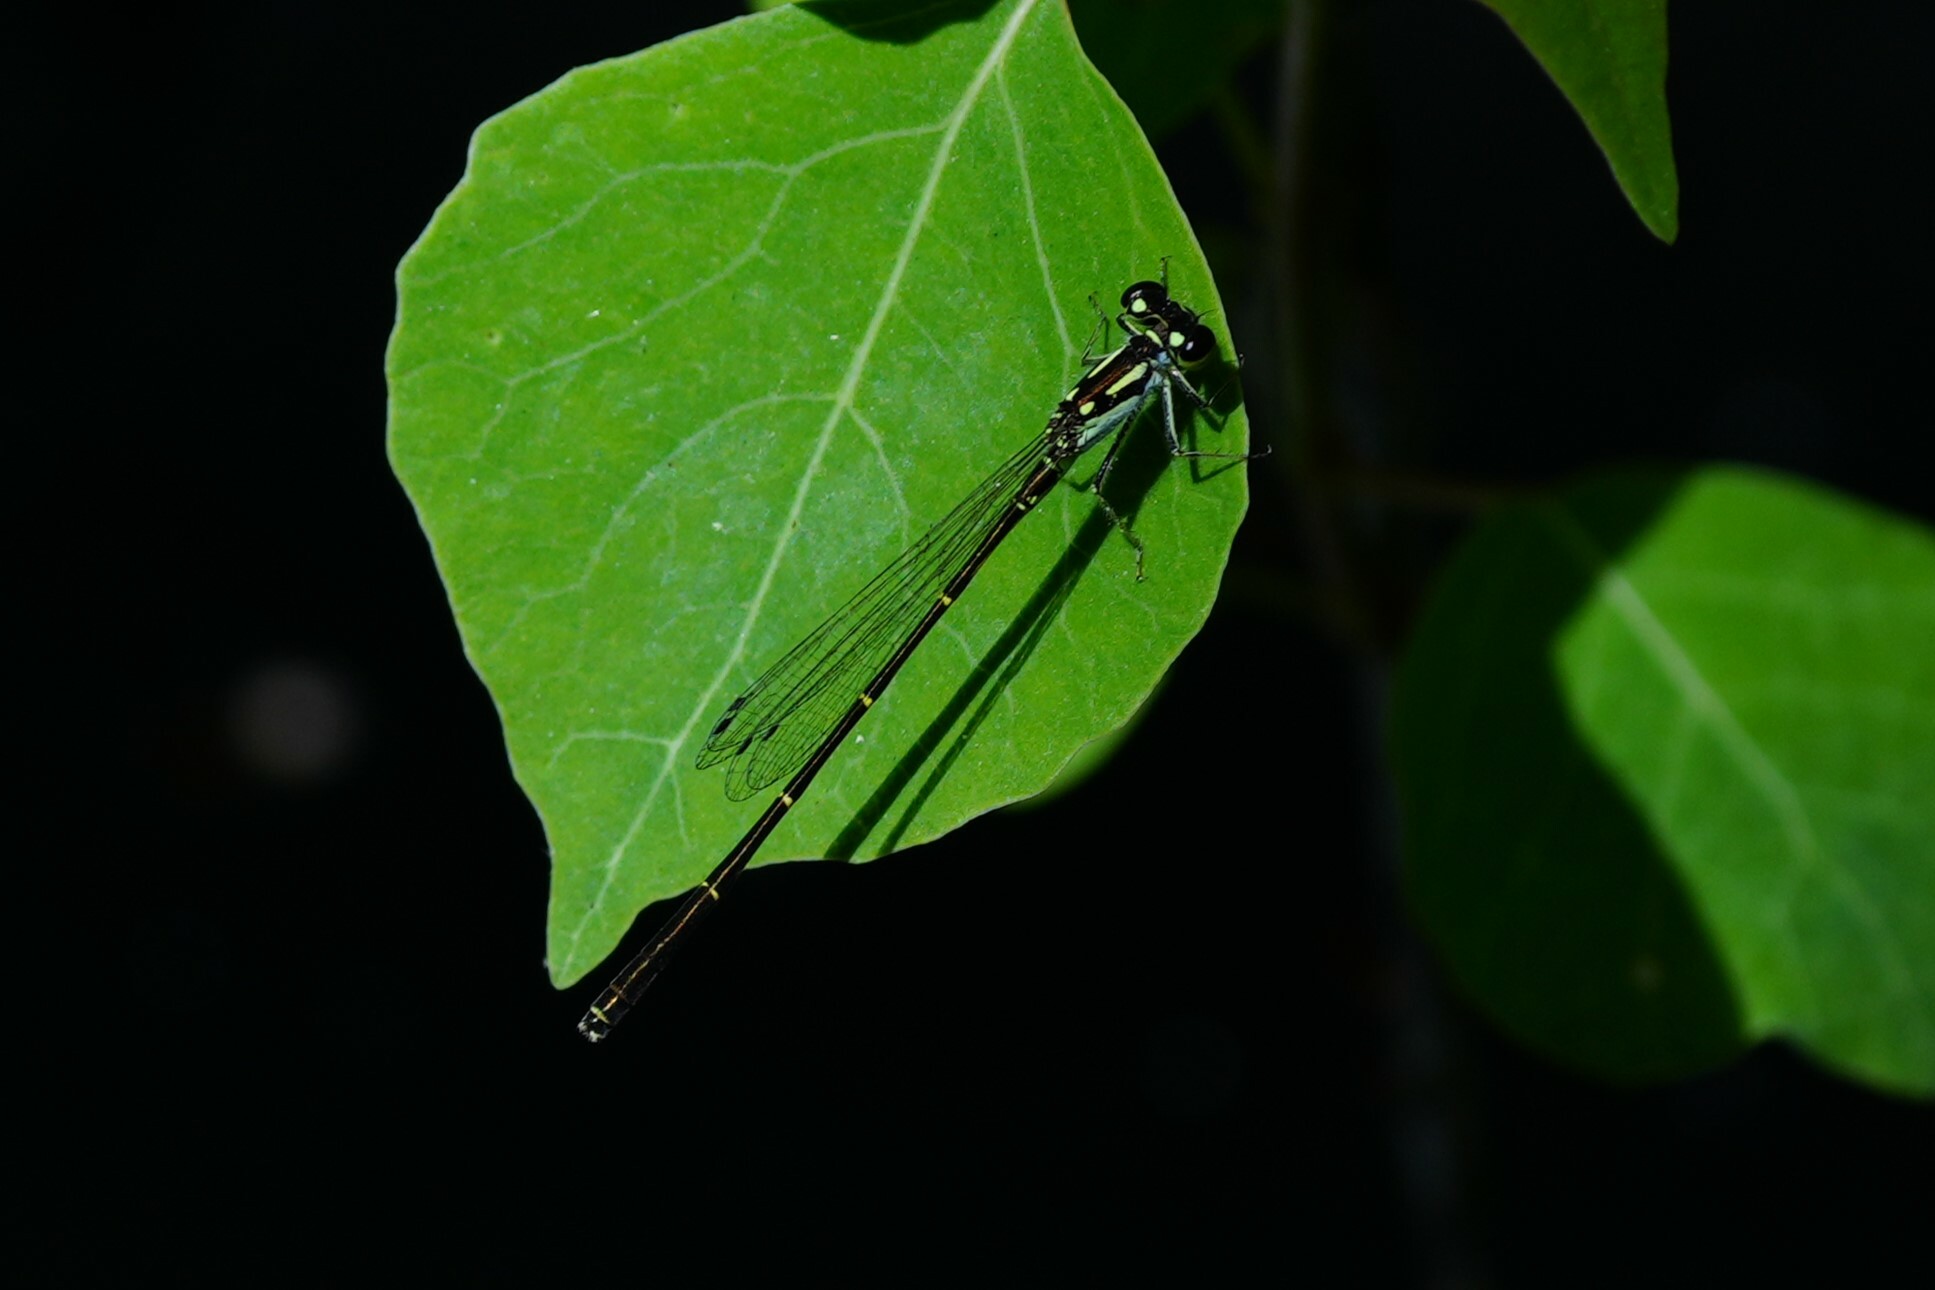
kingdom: Animalia
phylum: Arthropoda
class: Insecta
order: Odonata
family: Coenagrionidae
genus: Ischnura
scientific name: Ischnura posita
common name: Fragile forktail
